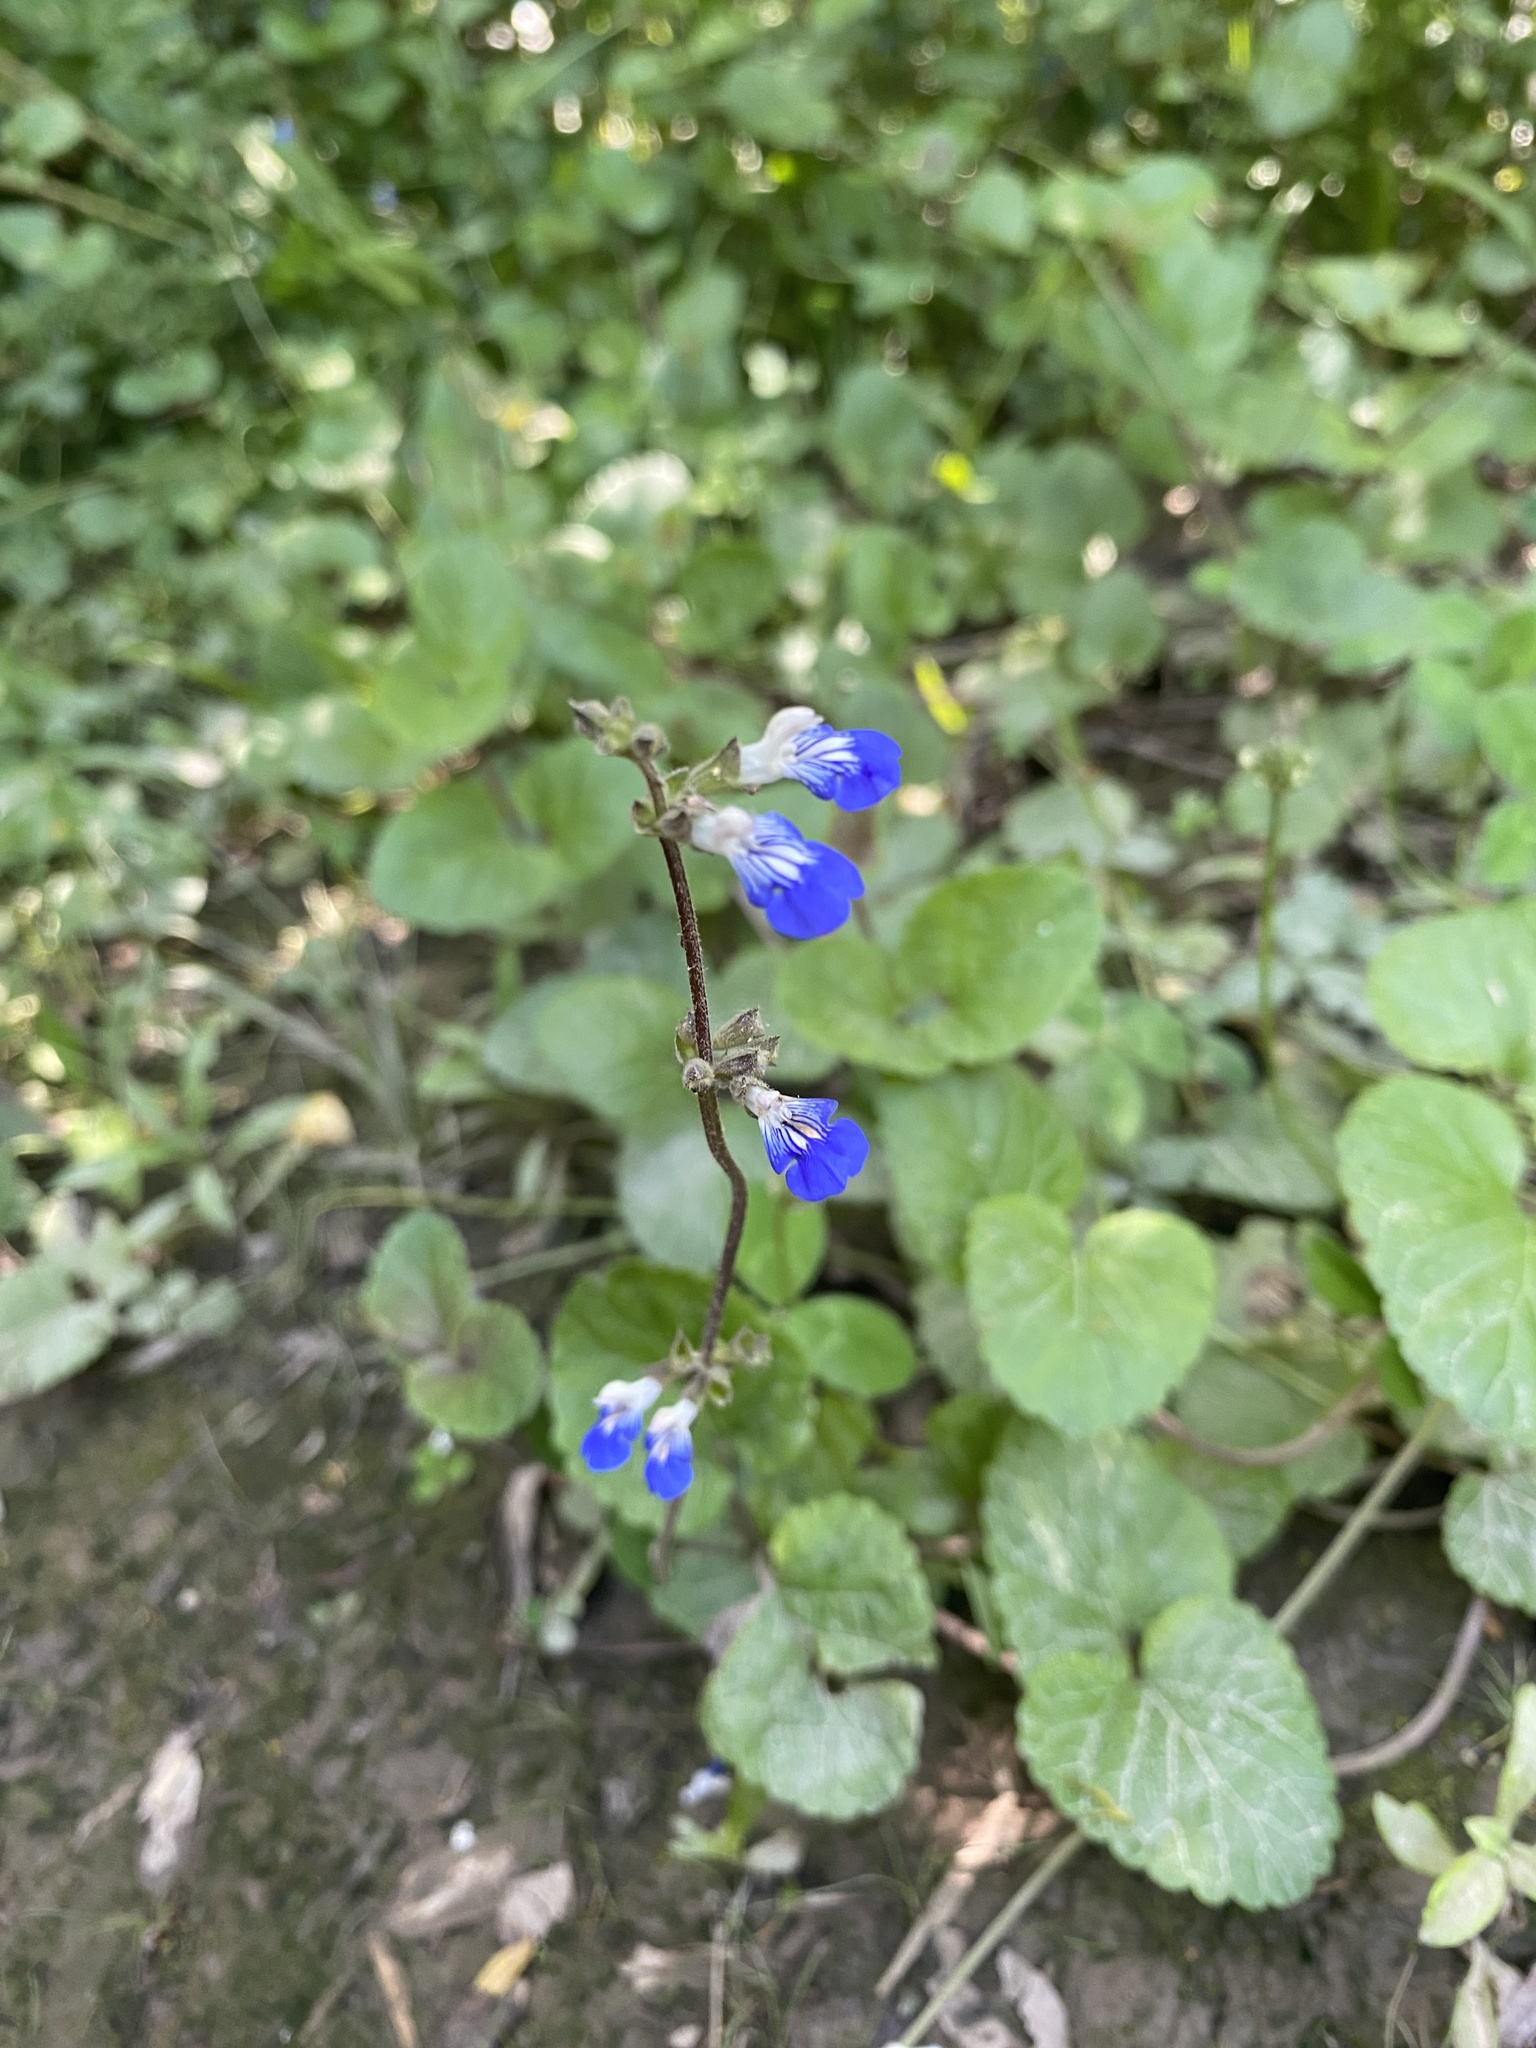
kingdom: Plantae
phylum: Tracheophyta
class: Magnoliopsida
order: Lamiales
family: Lamiaceae
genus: Salvia
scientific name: Salvia procurrens
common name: Blue creeper
